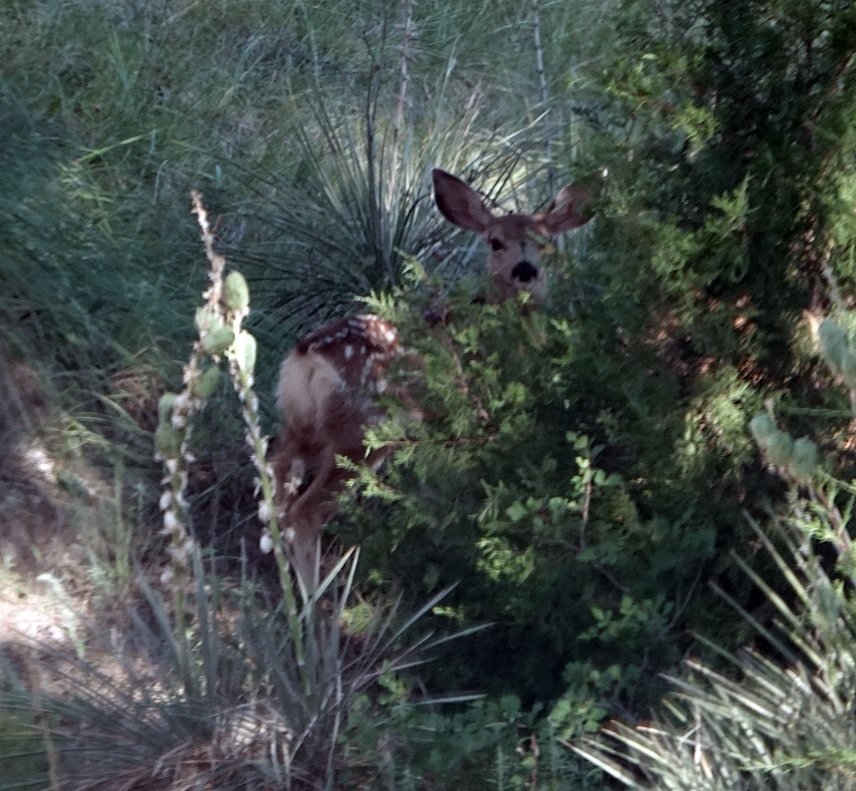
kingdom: Animalia
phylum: Chordata
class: Mammalia
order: Artiodactyla
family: Cervidae
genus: Odocoileus
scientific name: Odocoileus hemionus
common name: Mule deer
